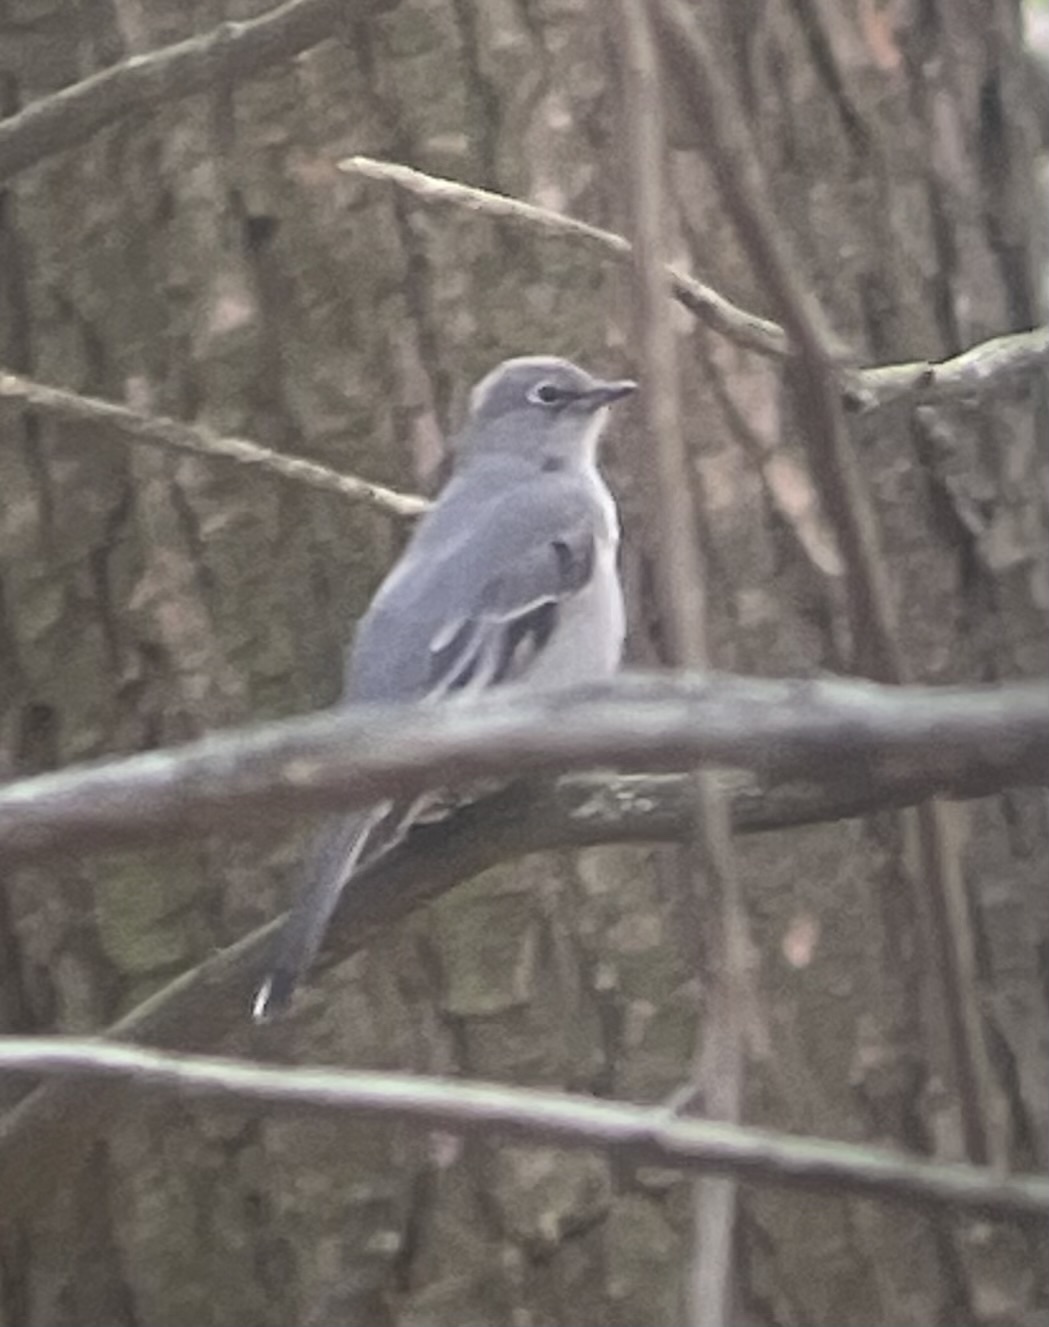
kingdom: Animalia
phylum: Chordata
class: Aves
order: Passeriformes
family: Turdidae
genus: Myadestes
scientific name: Myadestes townsendi
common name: Townsend's solitaire
